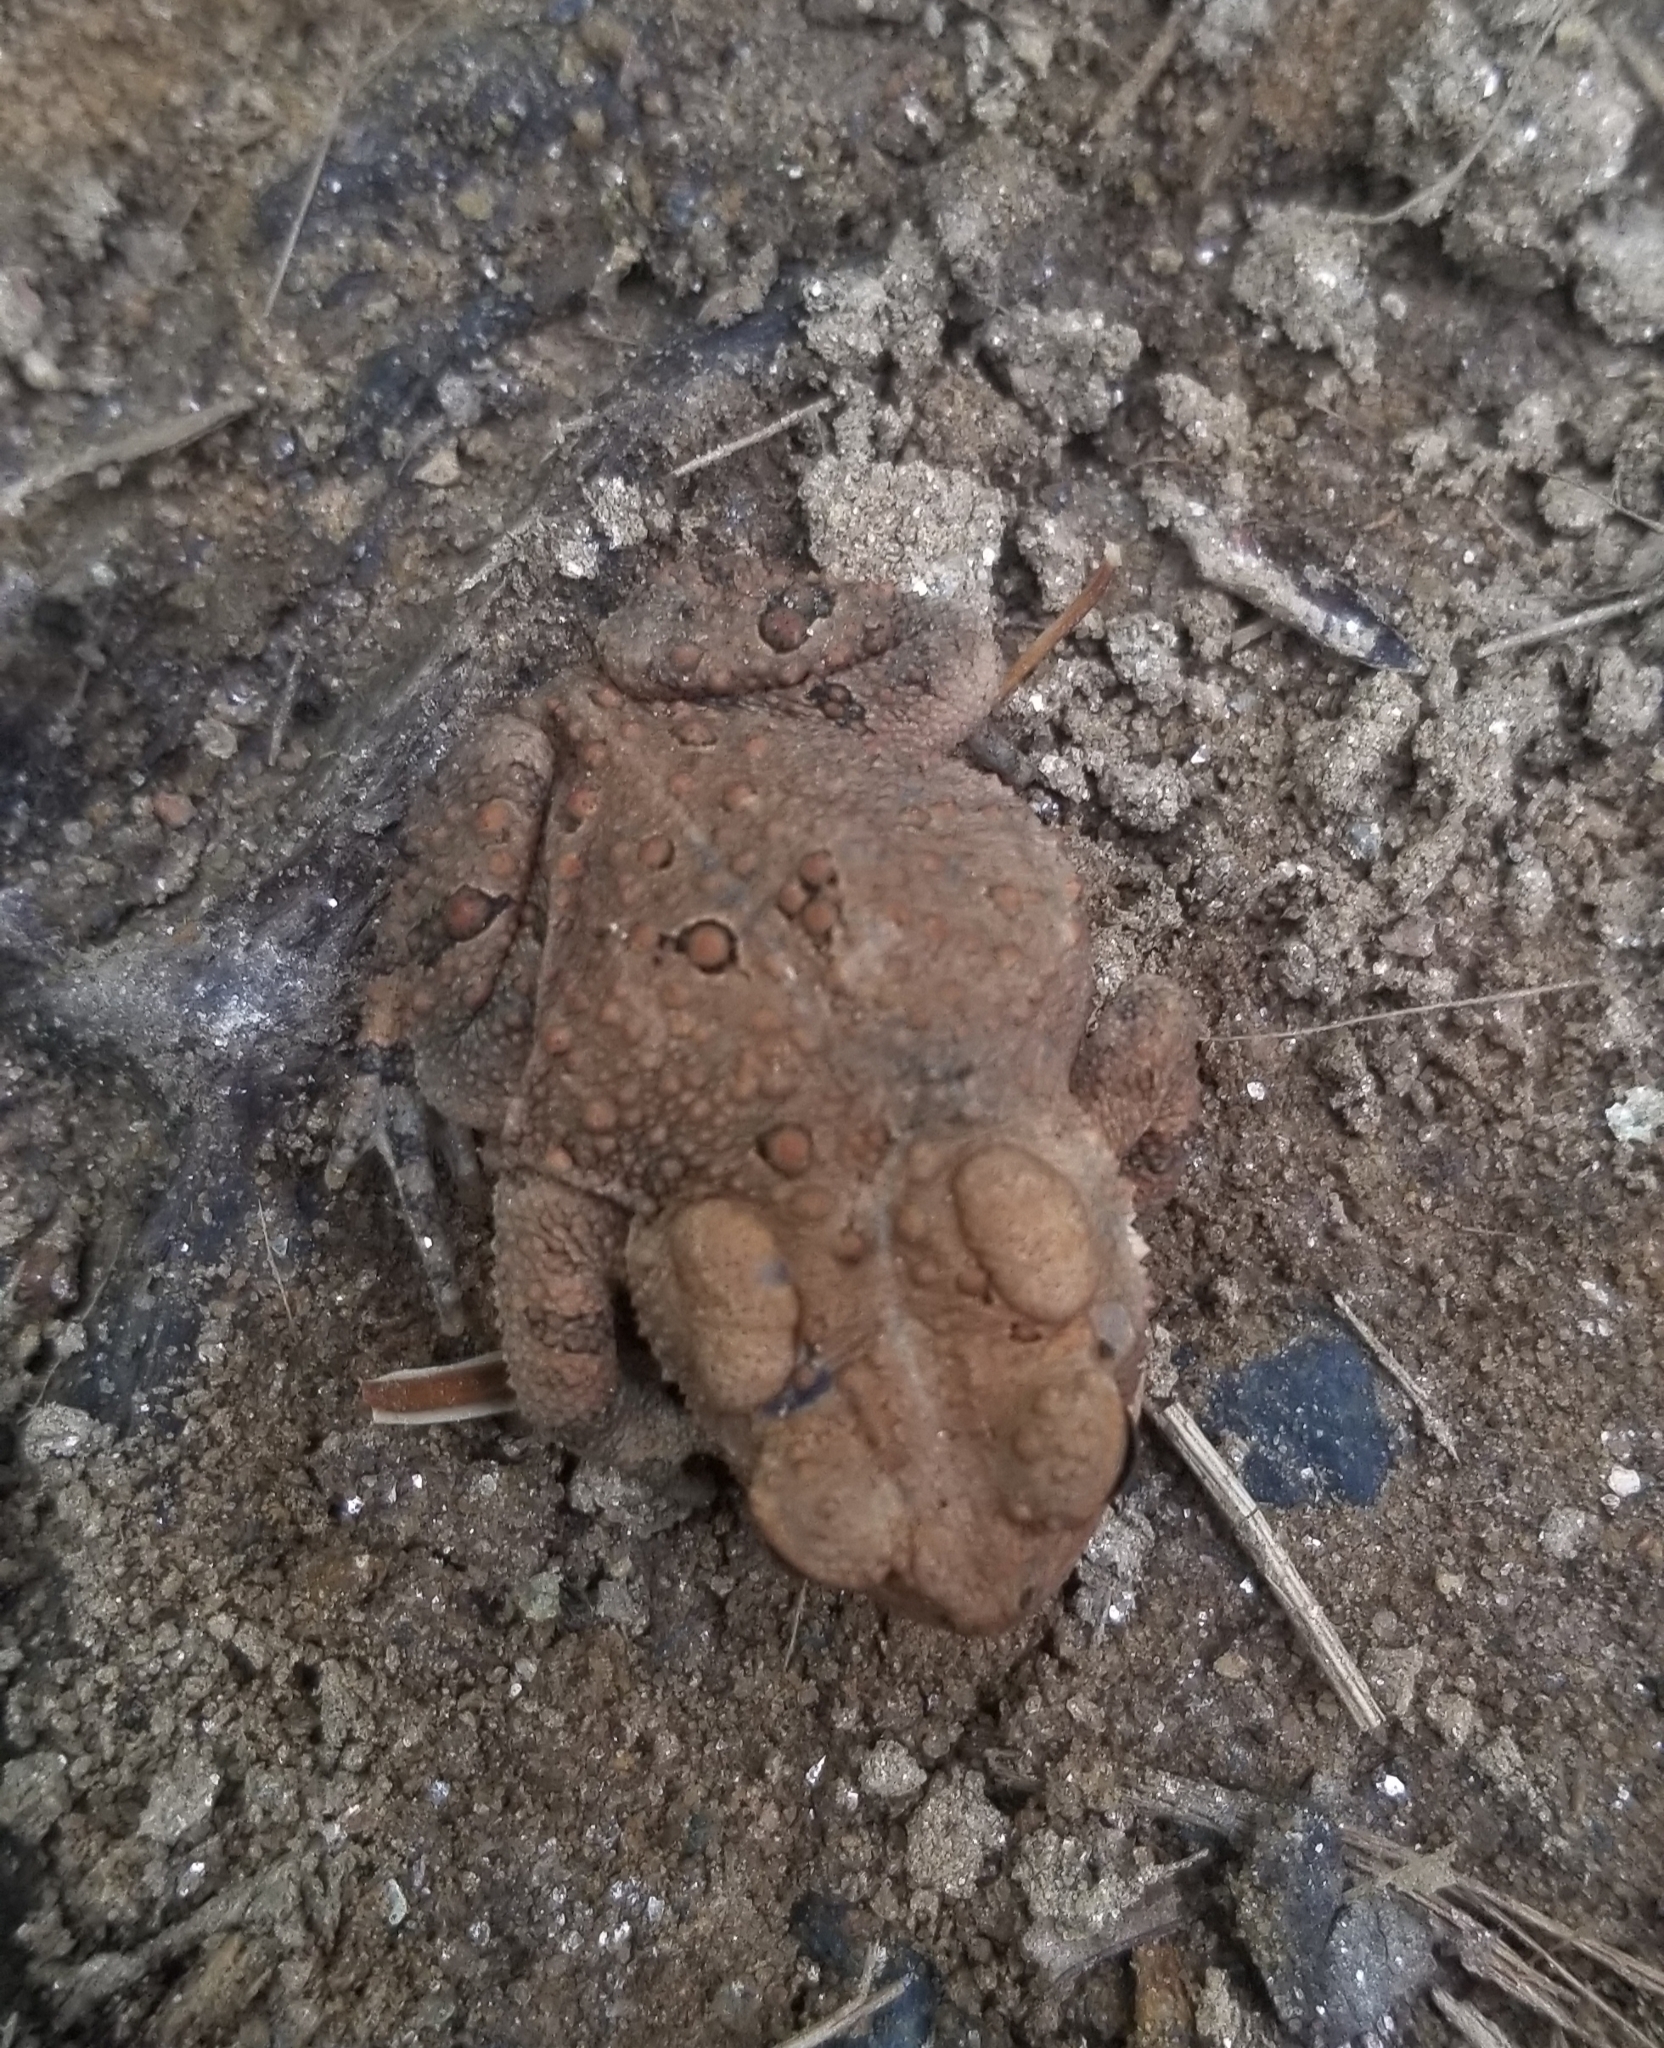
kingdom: Animalia
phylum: Chordata
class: Amphibia
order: Anura
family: Bufonidae
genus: Anaxyrus
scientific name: Anaxyrus americanus
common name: American toad
